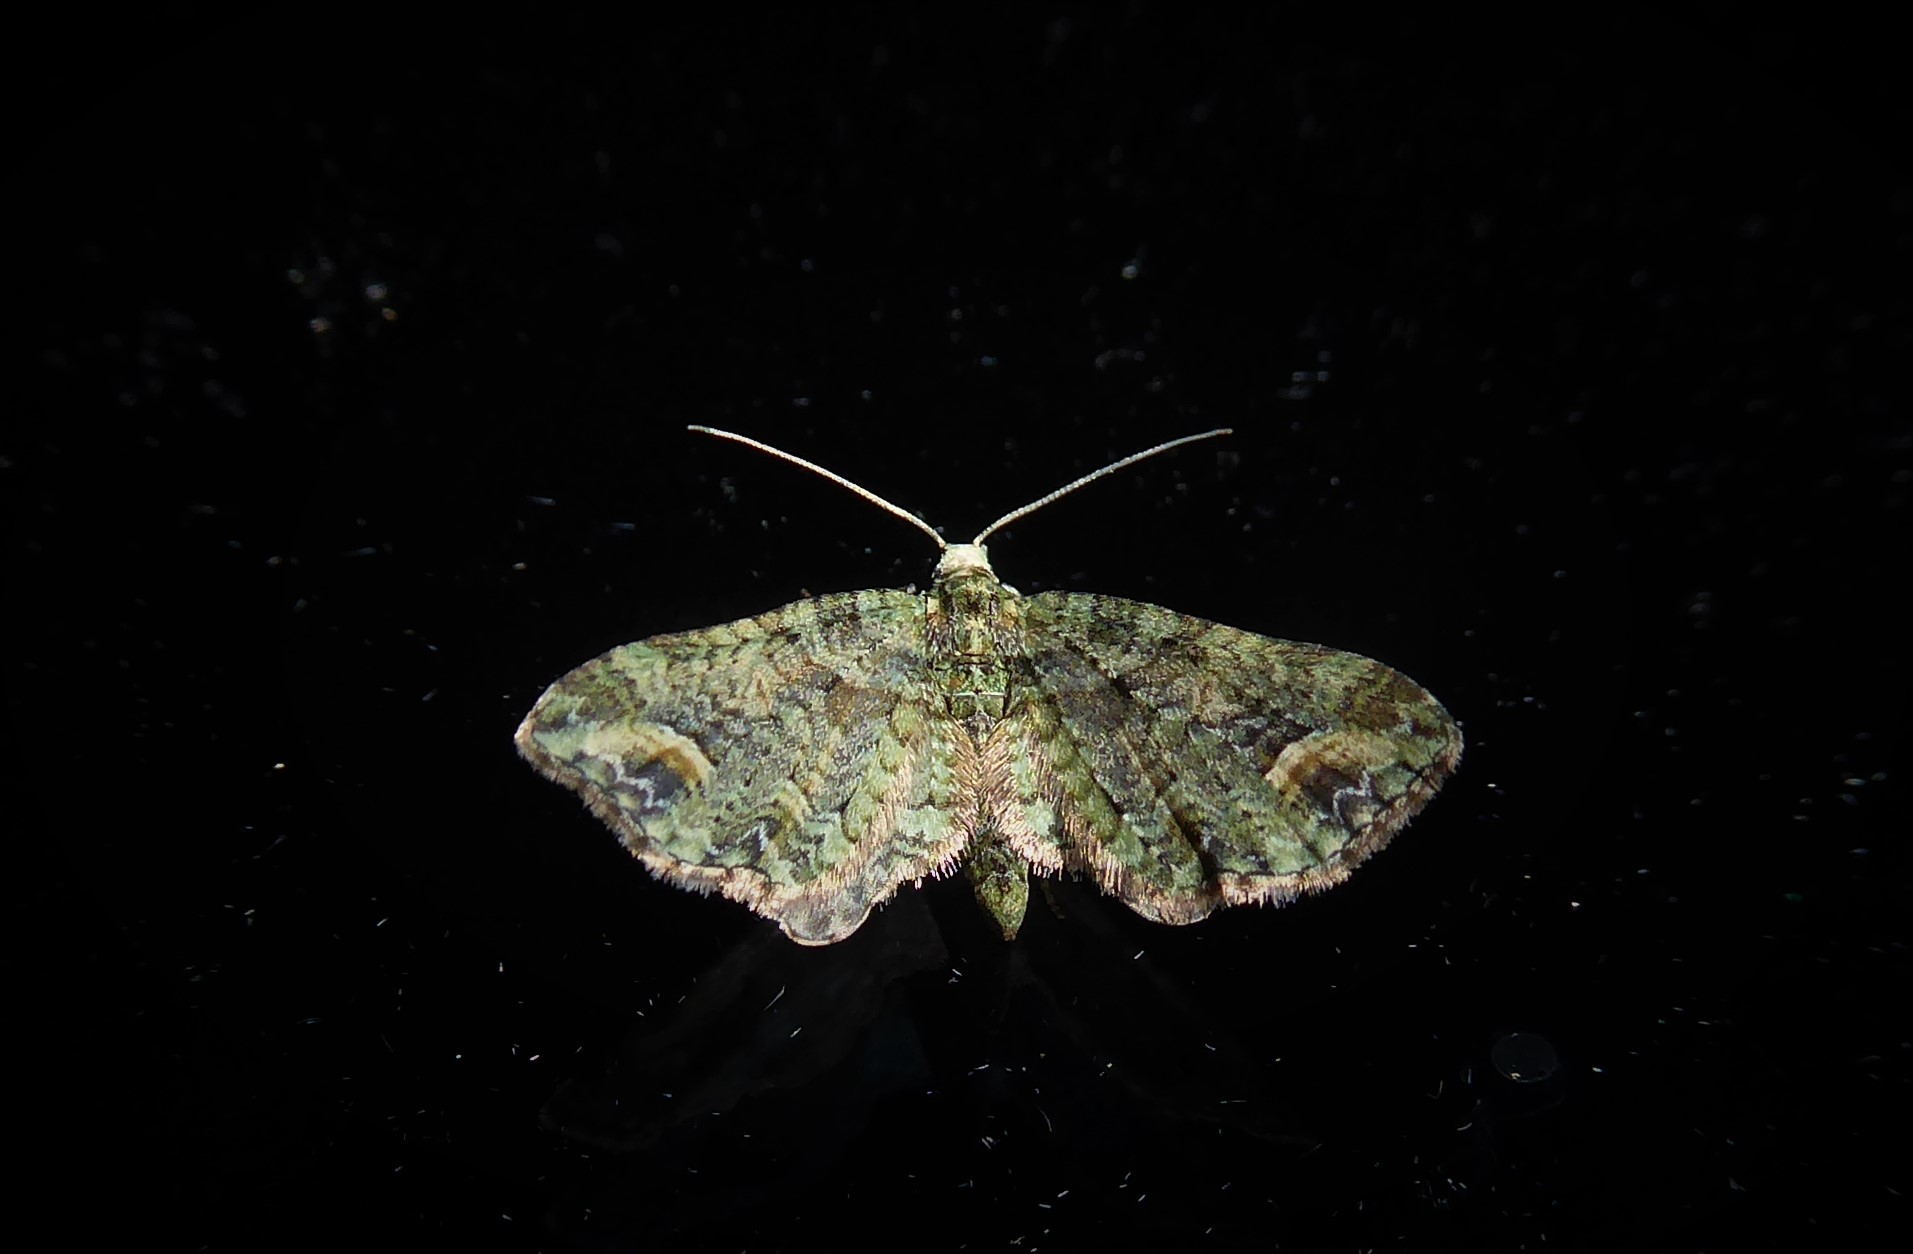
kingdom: Animalia
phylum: Arthropoda
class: Insecta
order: Lepidoptera
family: Geometridae
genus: Idaea
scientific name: Idaea mutanda
